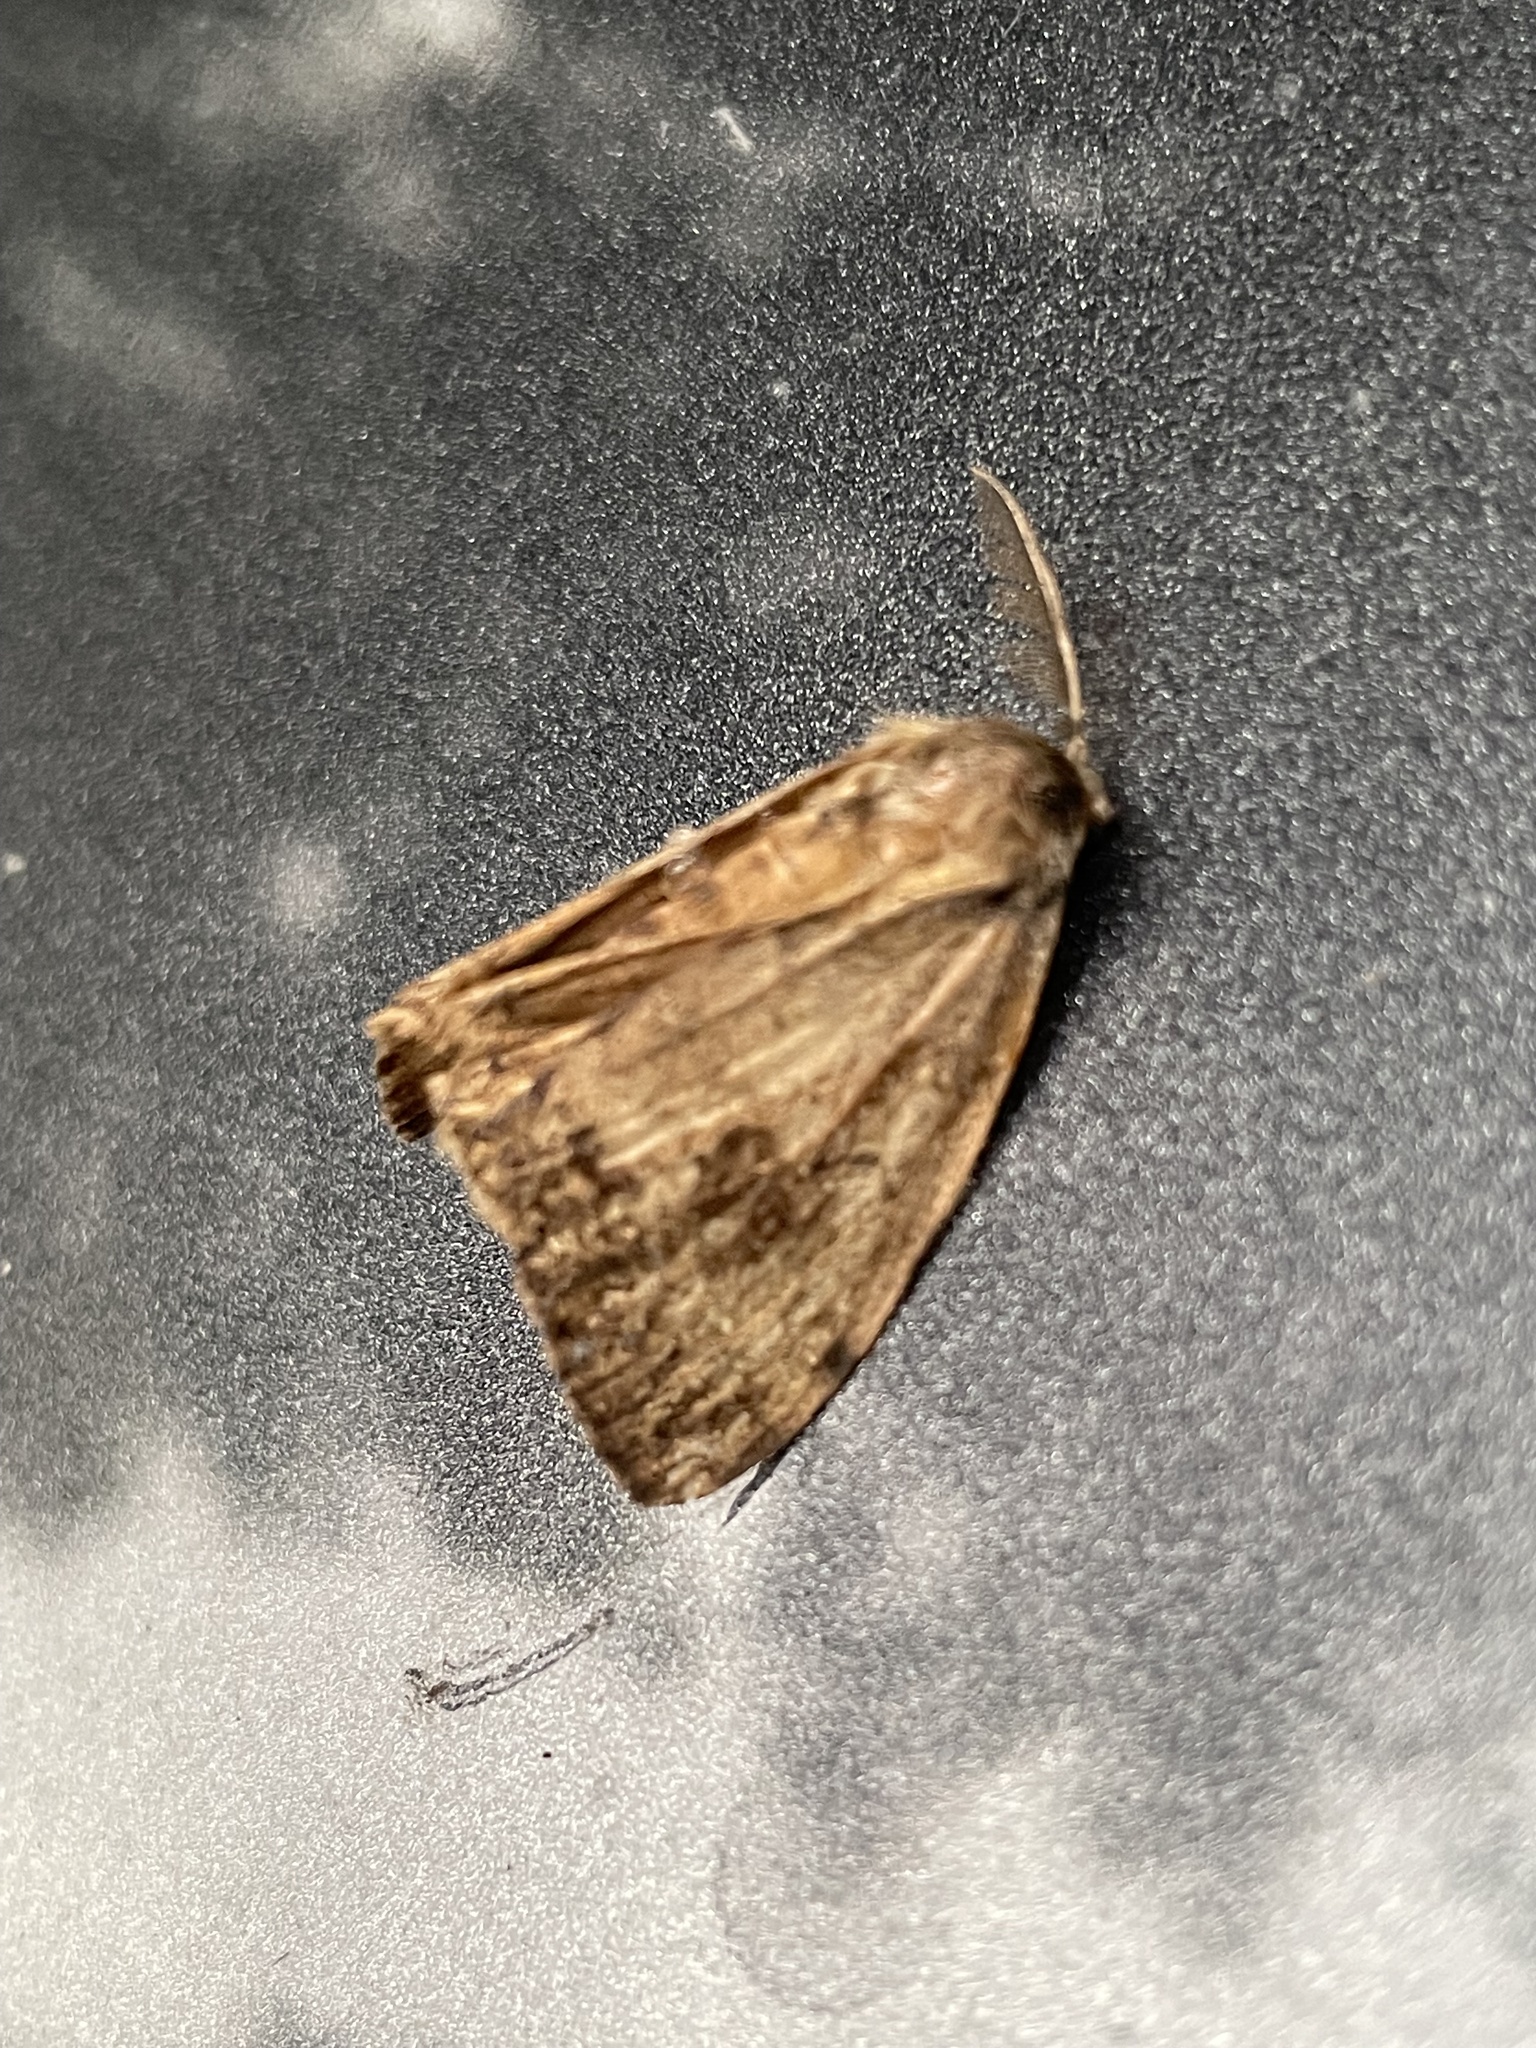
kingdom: Animalia
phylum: Arthropoda
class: Insecta
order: Lepidoptera
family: Erebidae
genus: Lymantria
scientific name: Lymantria dispar
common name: Gypsy moth
